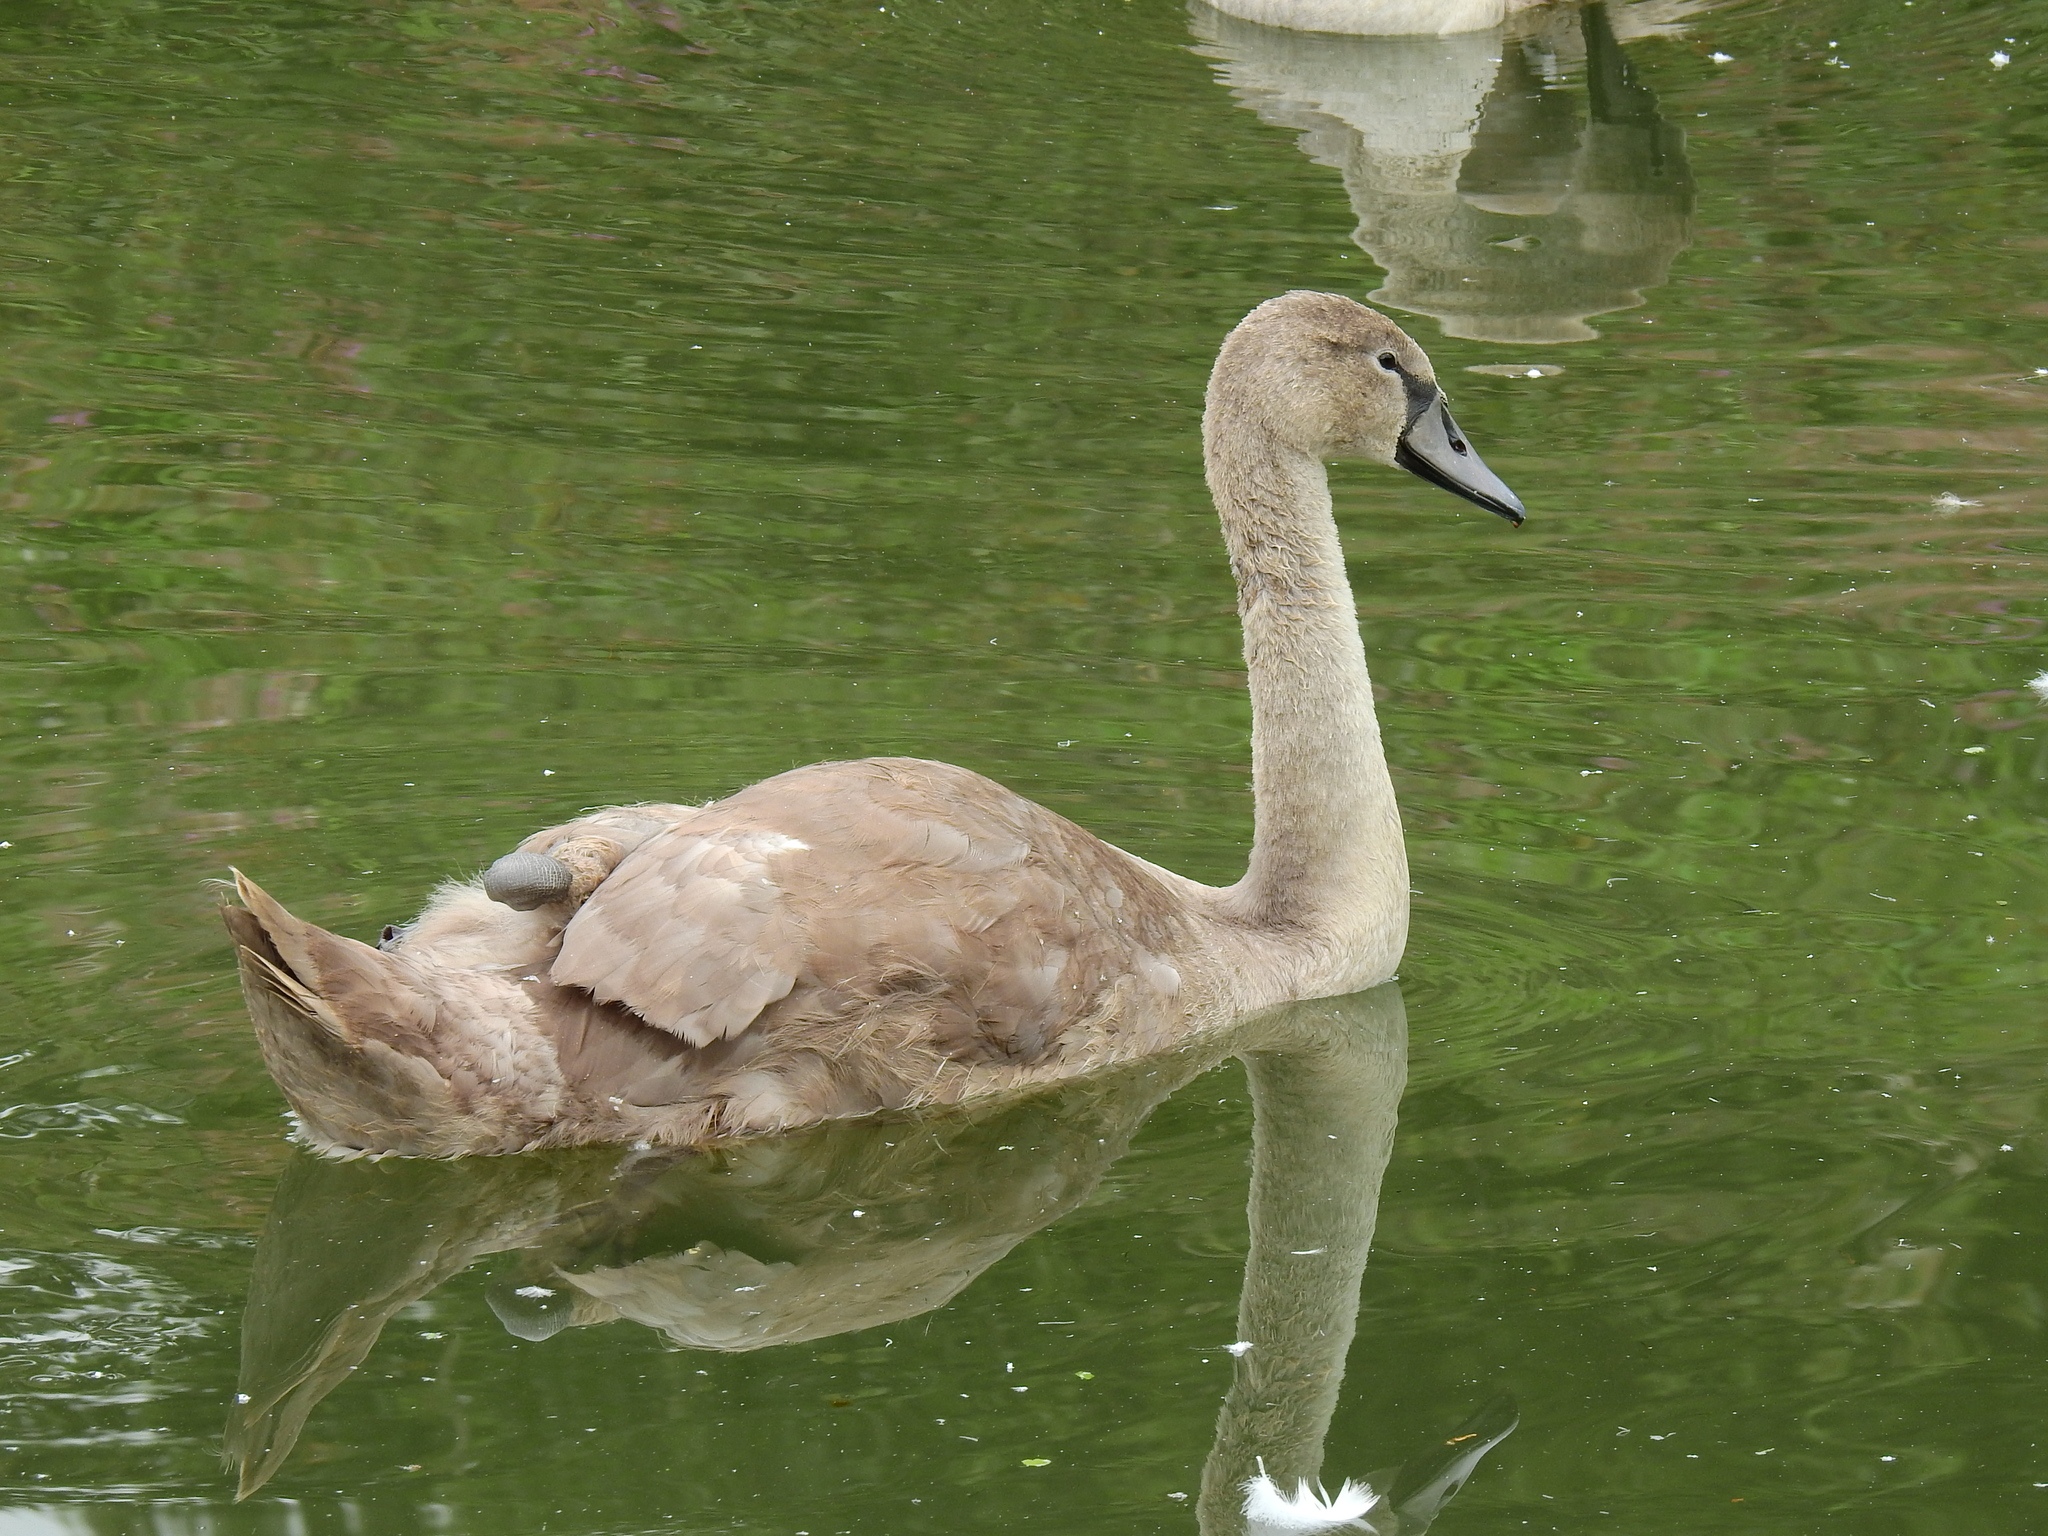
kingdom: Animalia
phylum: Chordata
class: Aves
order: Anseriformes
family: Anatidae
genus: Cygnus
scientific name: Cygnus olor
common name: Mute swan
